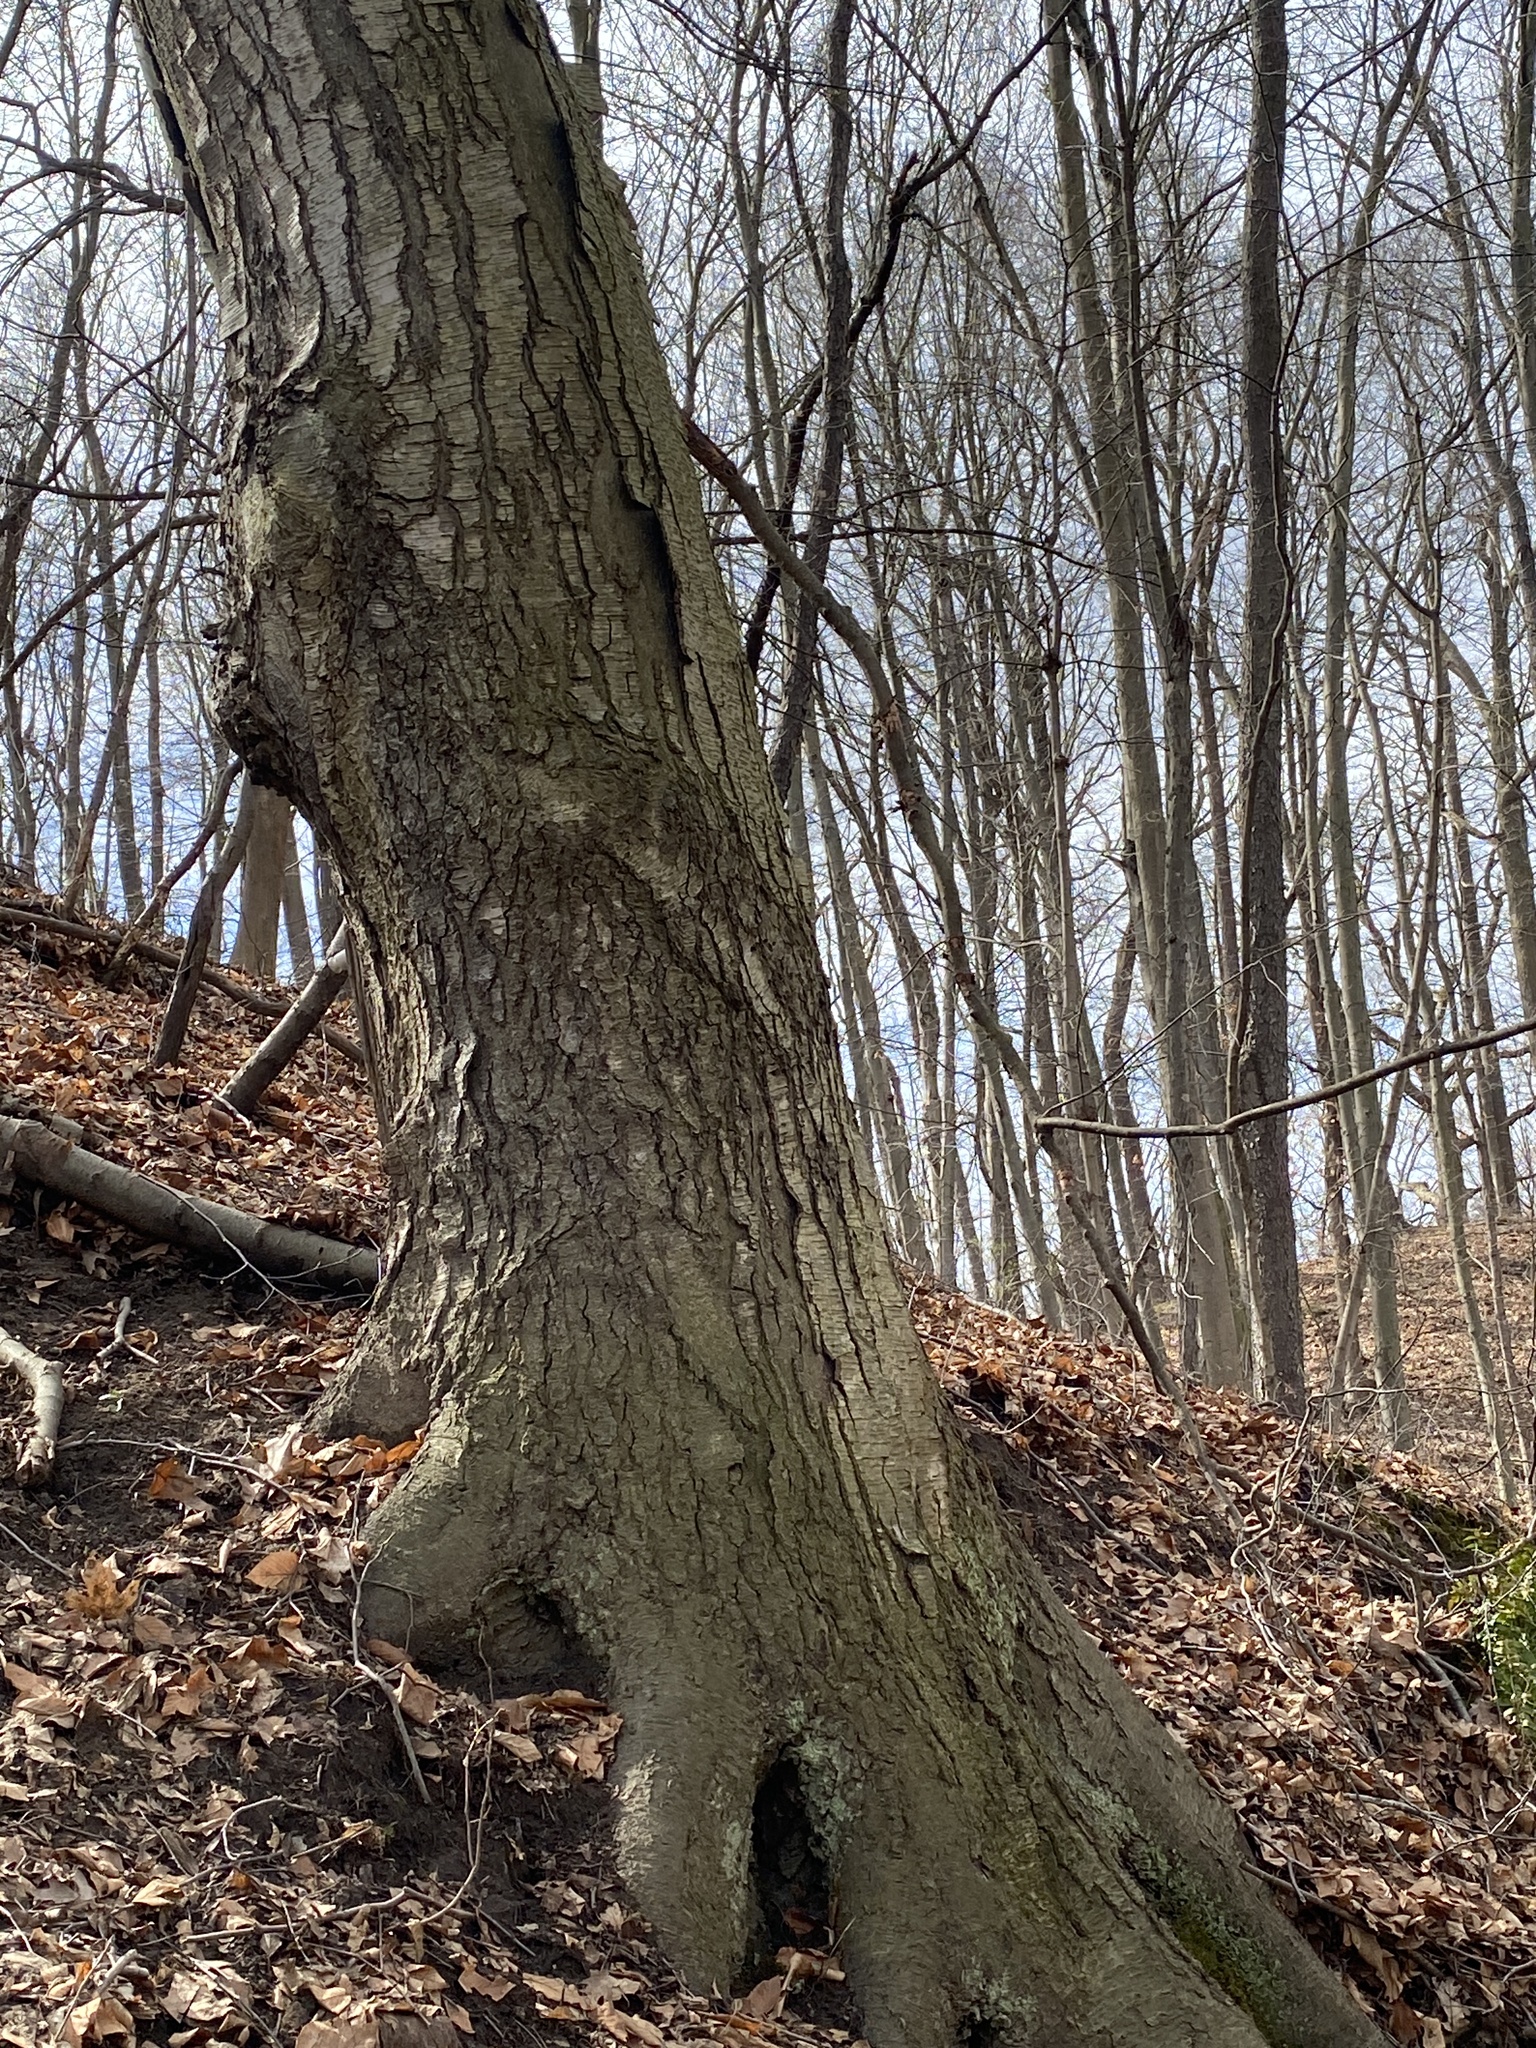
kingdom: Plantae
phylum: Tracheophyta
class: Magnoliopsida
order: Fagales
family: Betulaceae
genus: Betula
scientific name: Betula lenta
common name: Black birch
